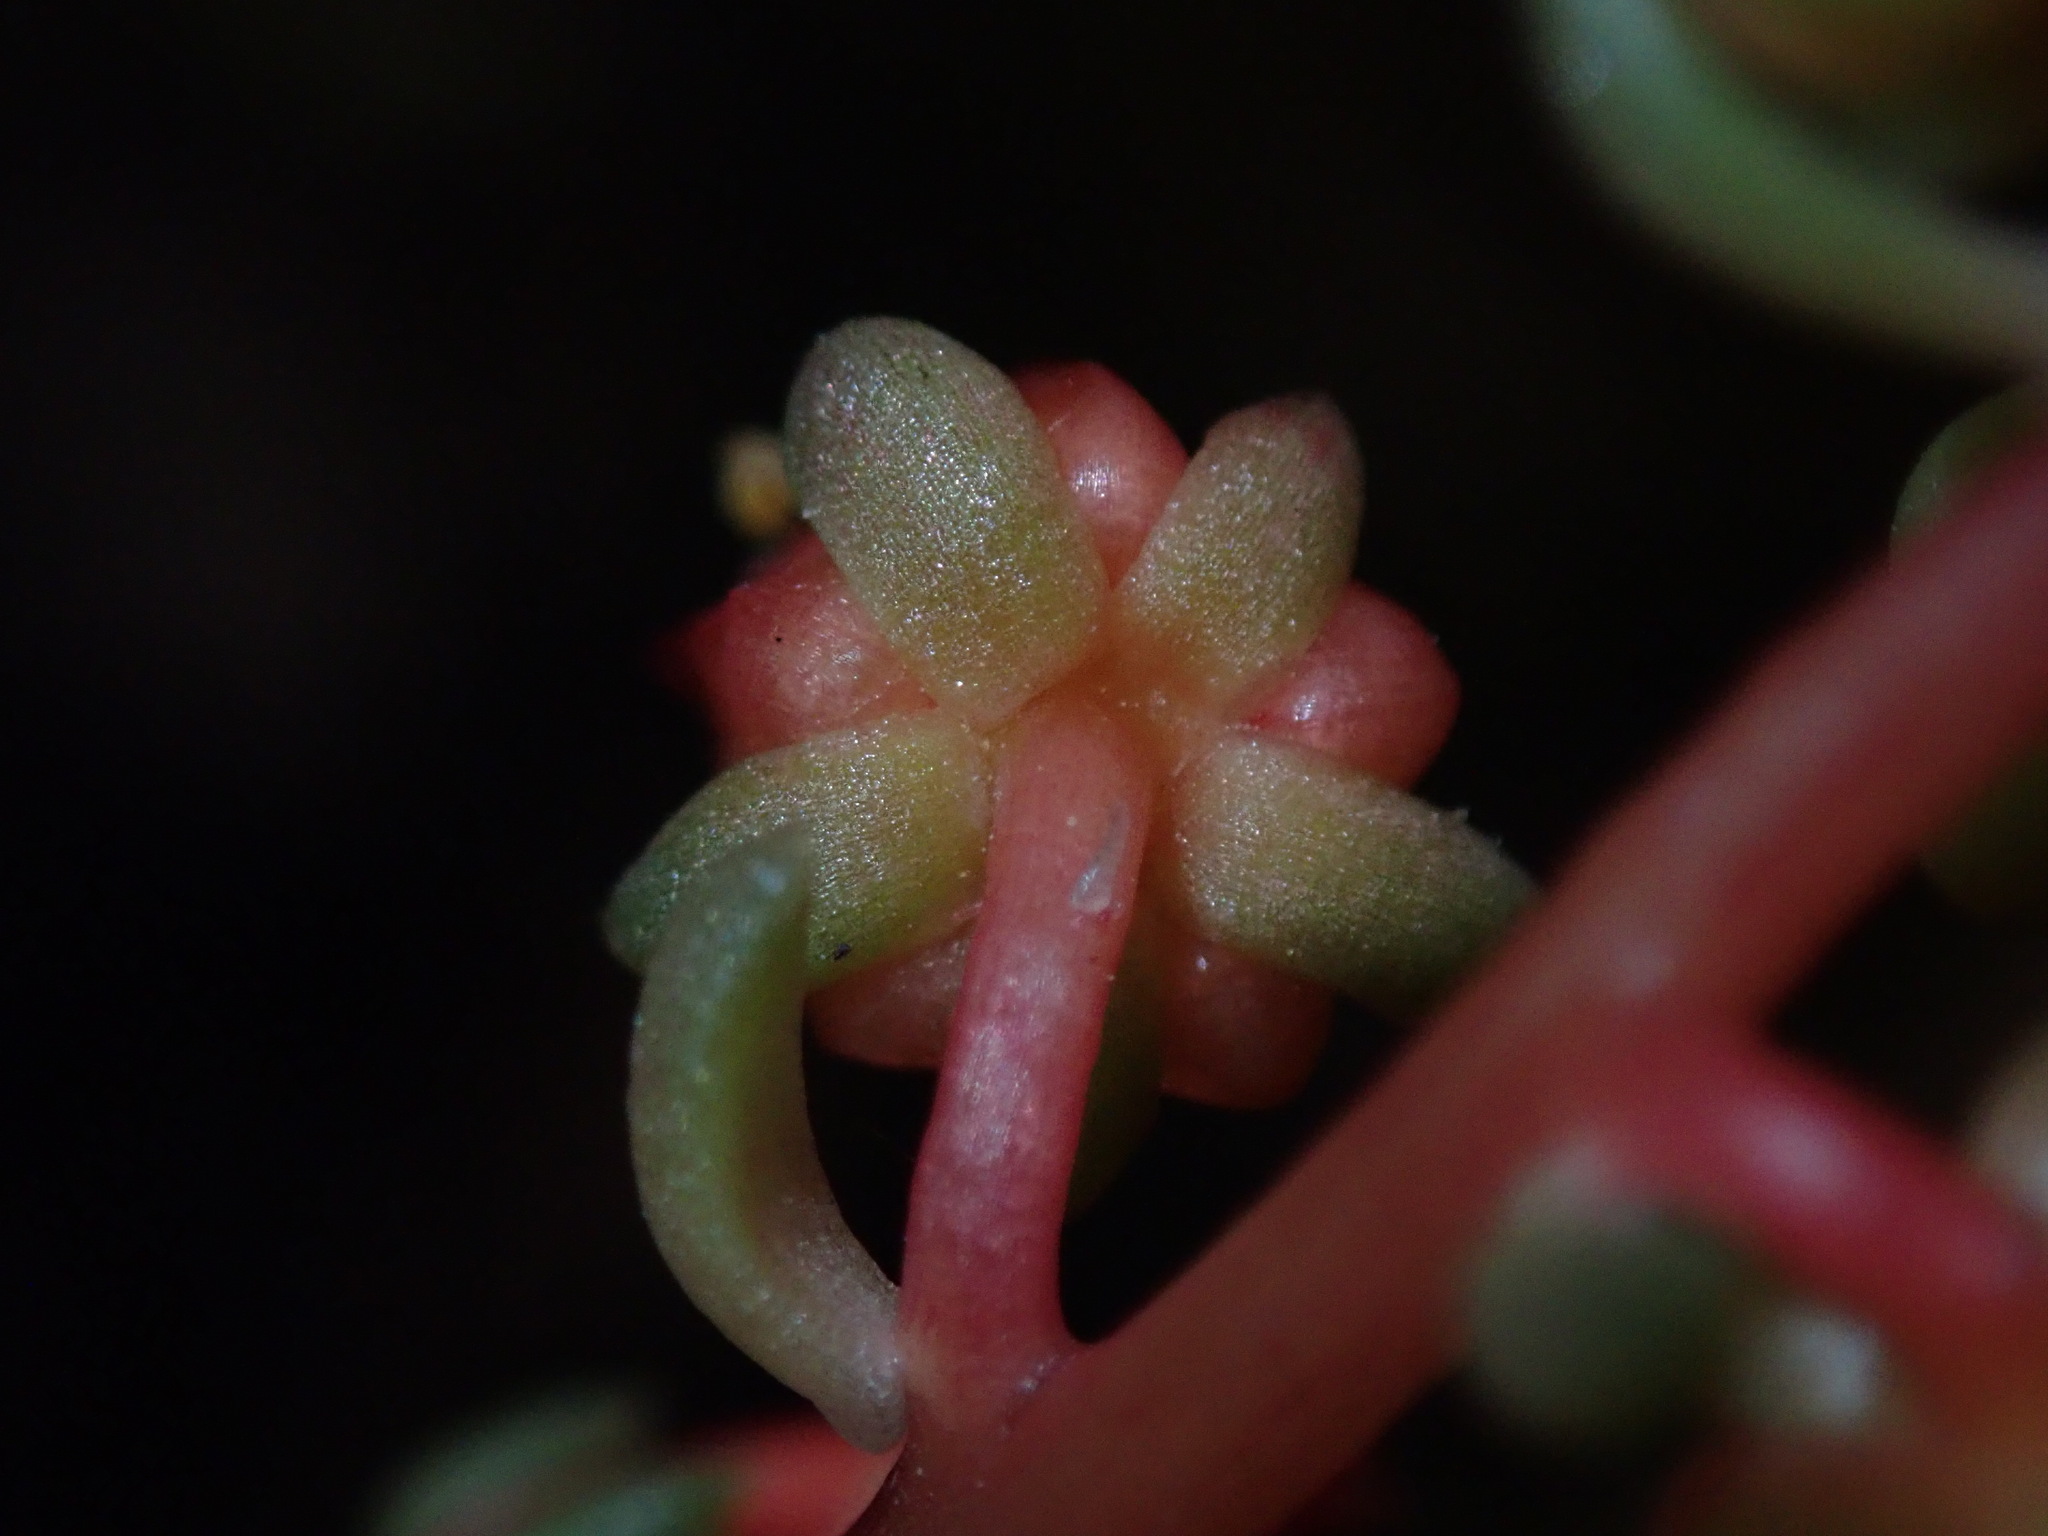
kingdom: Plantae
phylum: Tracheophyta
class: Magnoliopsida
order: Saxifragales
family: Crassulaceae
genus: Echeveria
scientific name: Echeveria whitei
